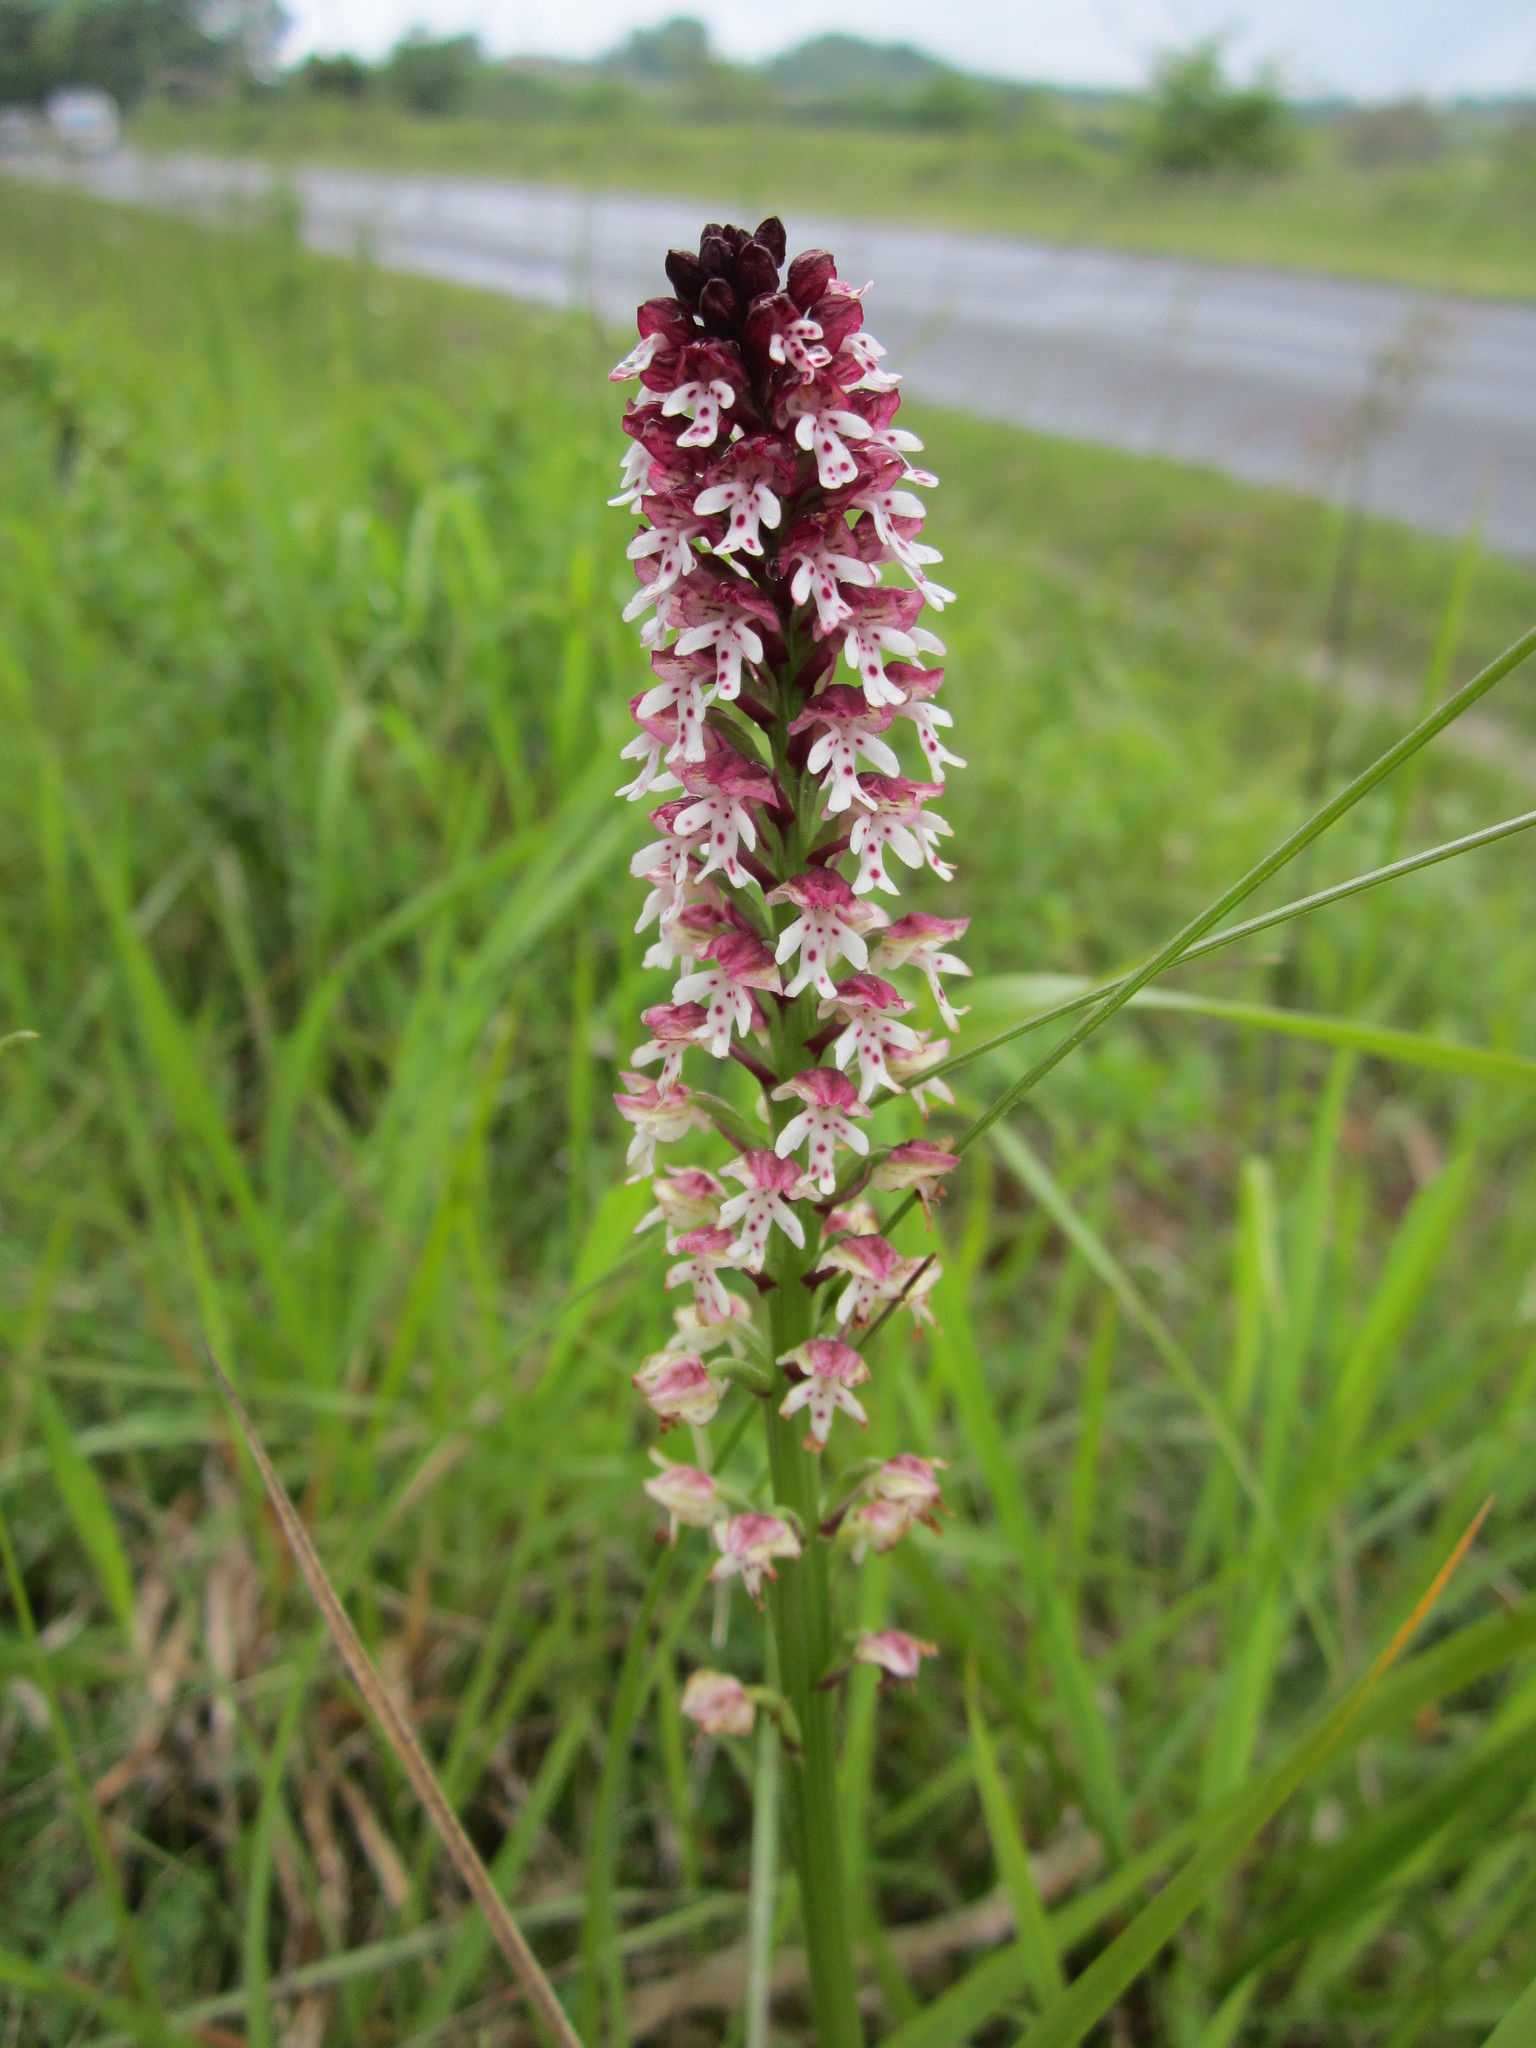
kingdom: Plantae
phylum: Tracheophyta
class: Liliopsida
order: Asparagales
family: Orchidaceae
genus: Neotinea
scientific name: Neotinea ustulata
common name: Burnt orchid
